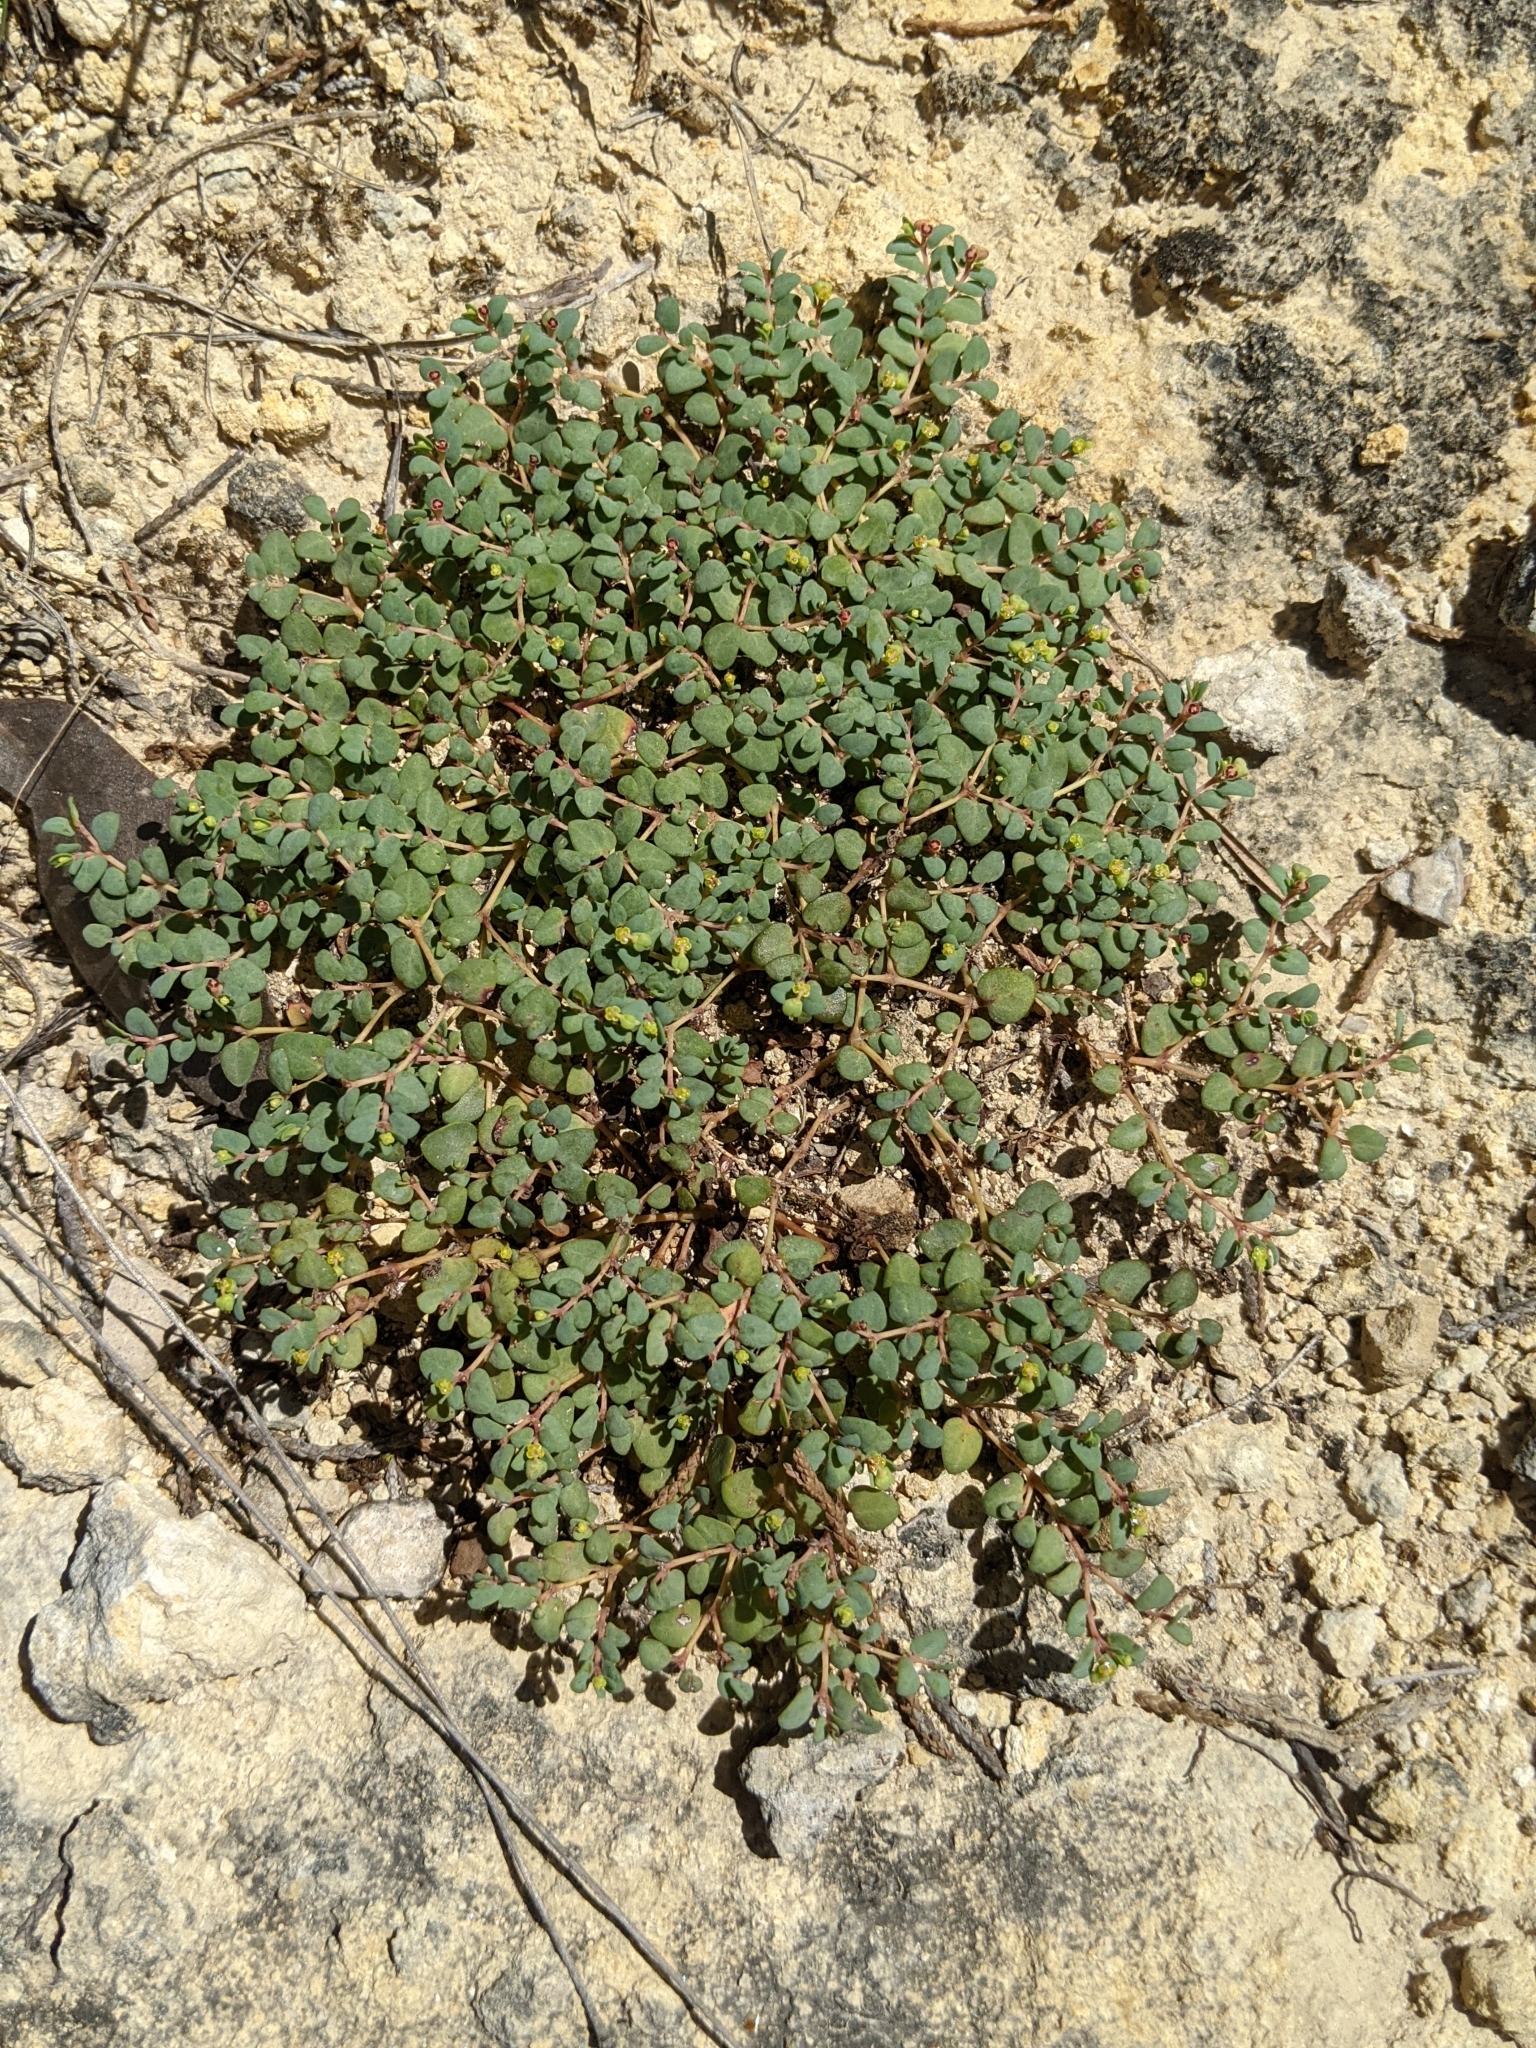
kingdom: Plantae
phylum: Tracheophyta
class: Magnoliopsida
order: Malpighiales
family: Euphorbiaceae
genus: Euphorbia
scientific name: Euphorbia fendleri
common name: Fendler's euphorbia
